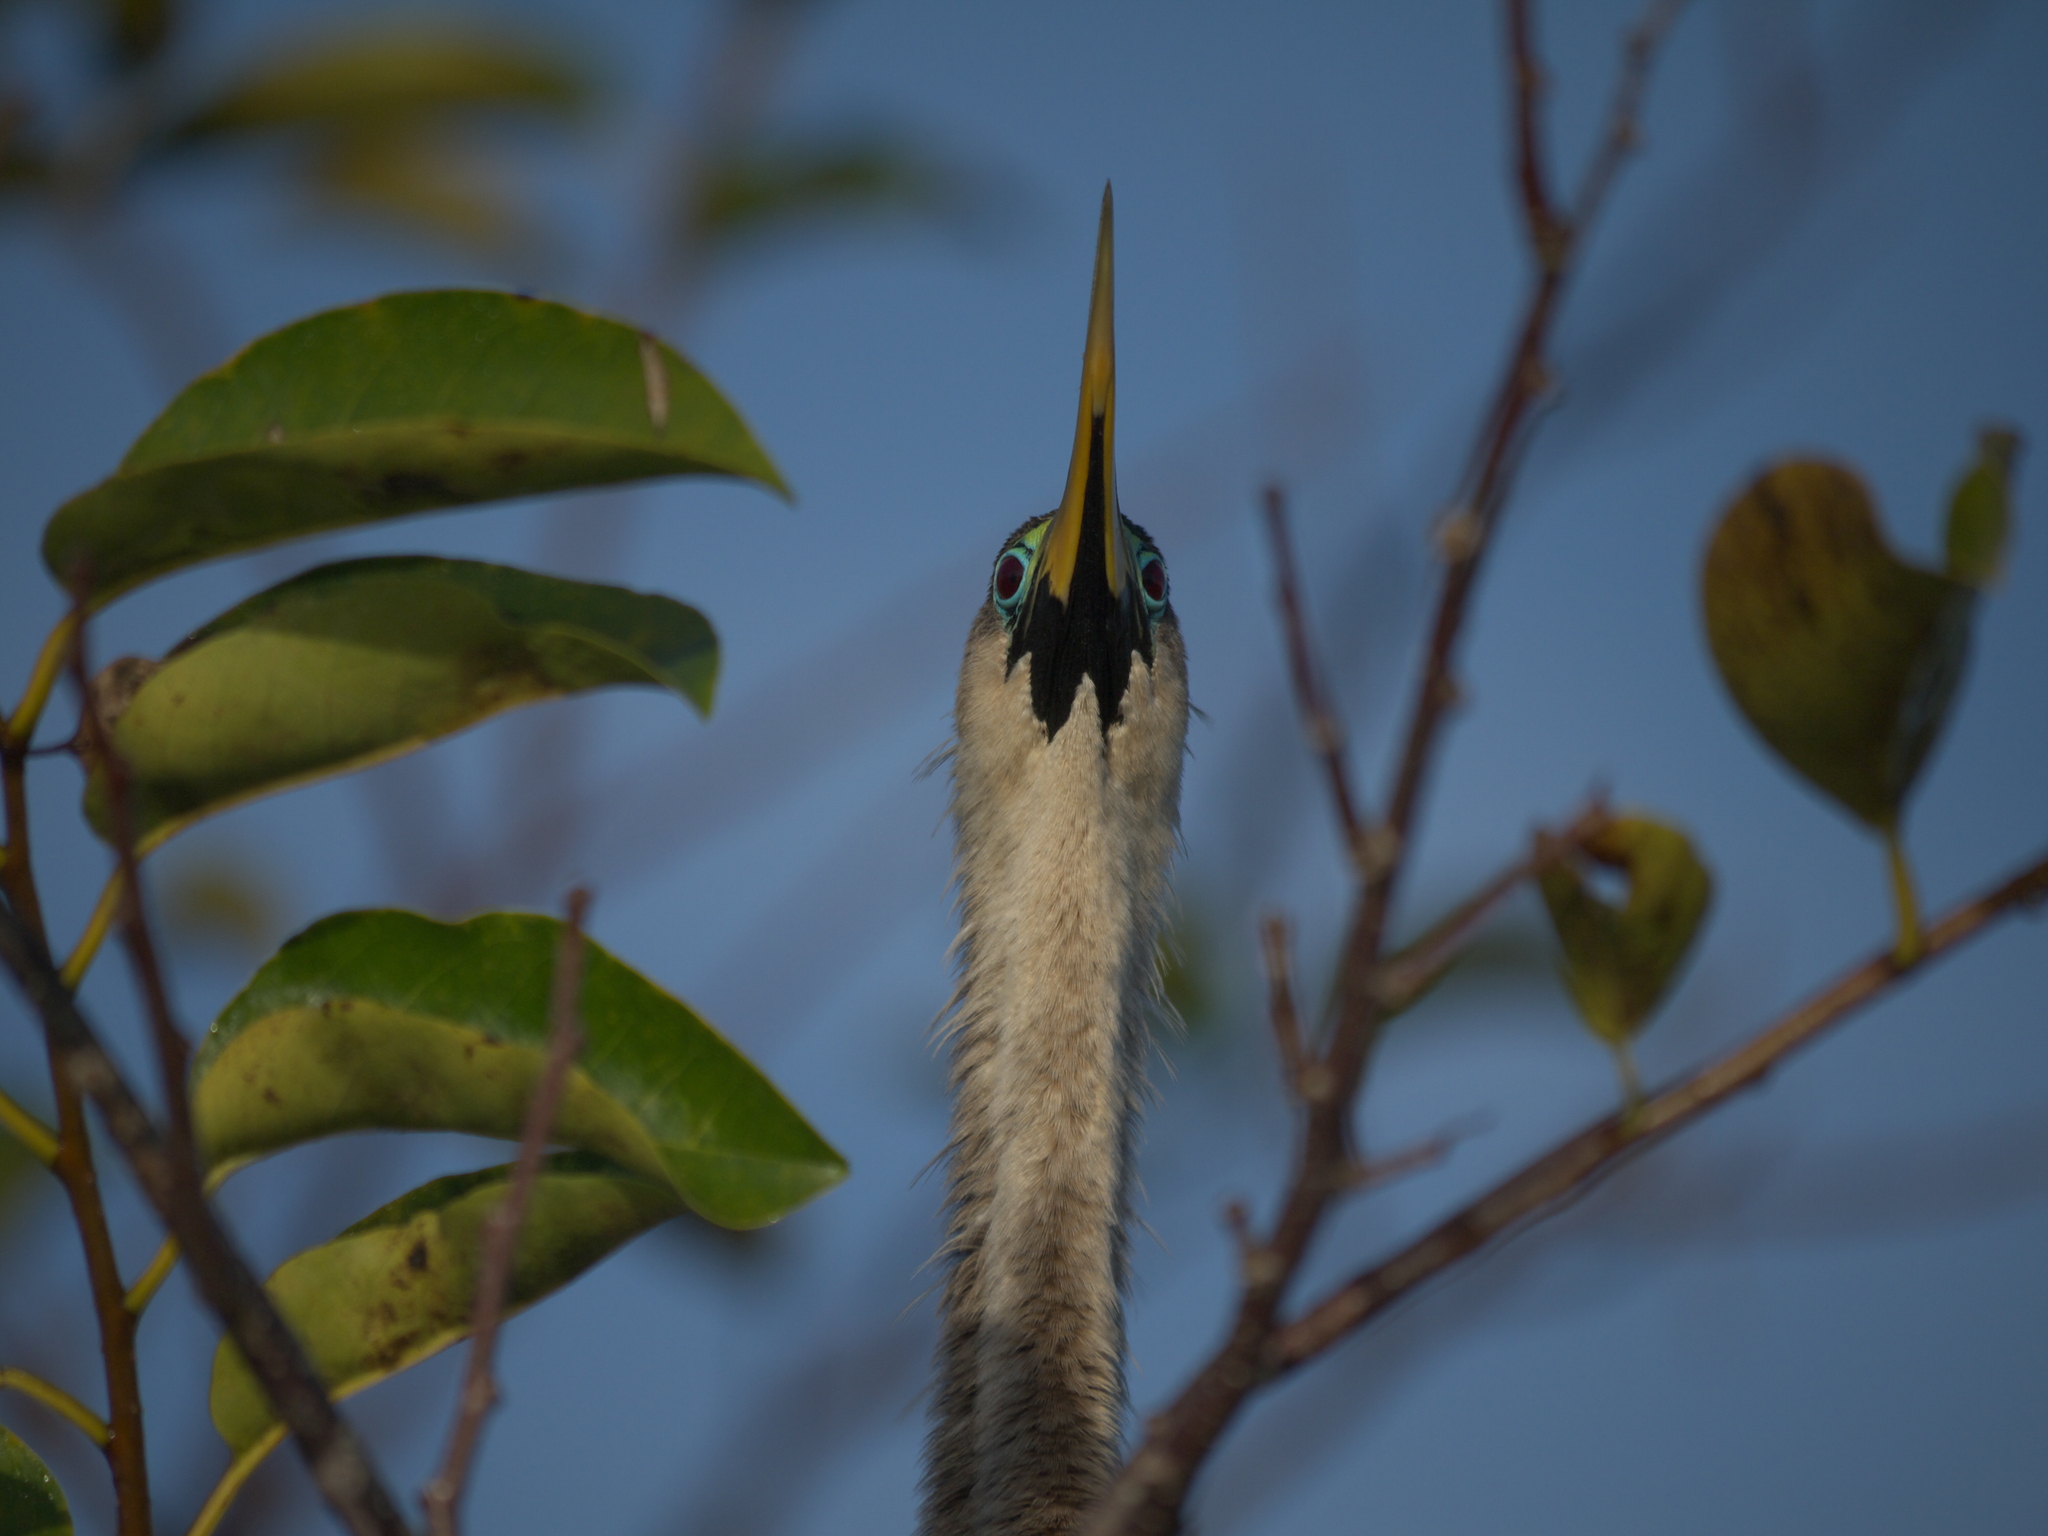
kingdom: Animalia
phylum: Chordata
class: Aves
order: Suliformes
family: Anhingidae
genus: Anhinga
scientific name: Anhinga anhinga
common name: Anhinga
